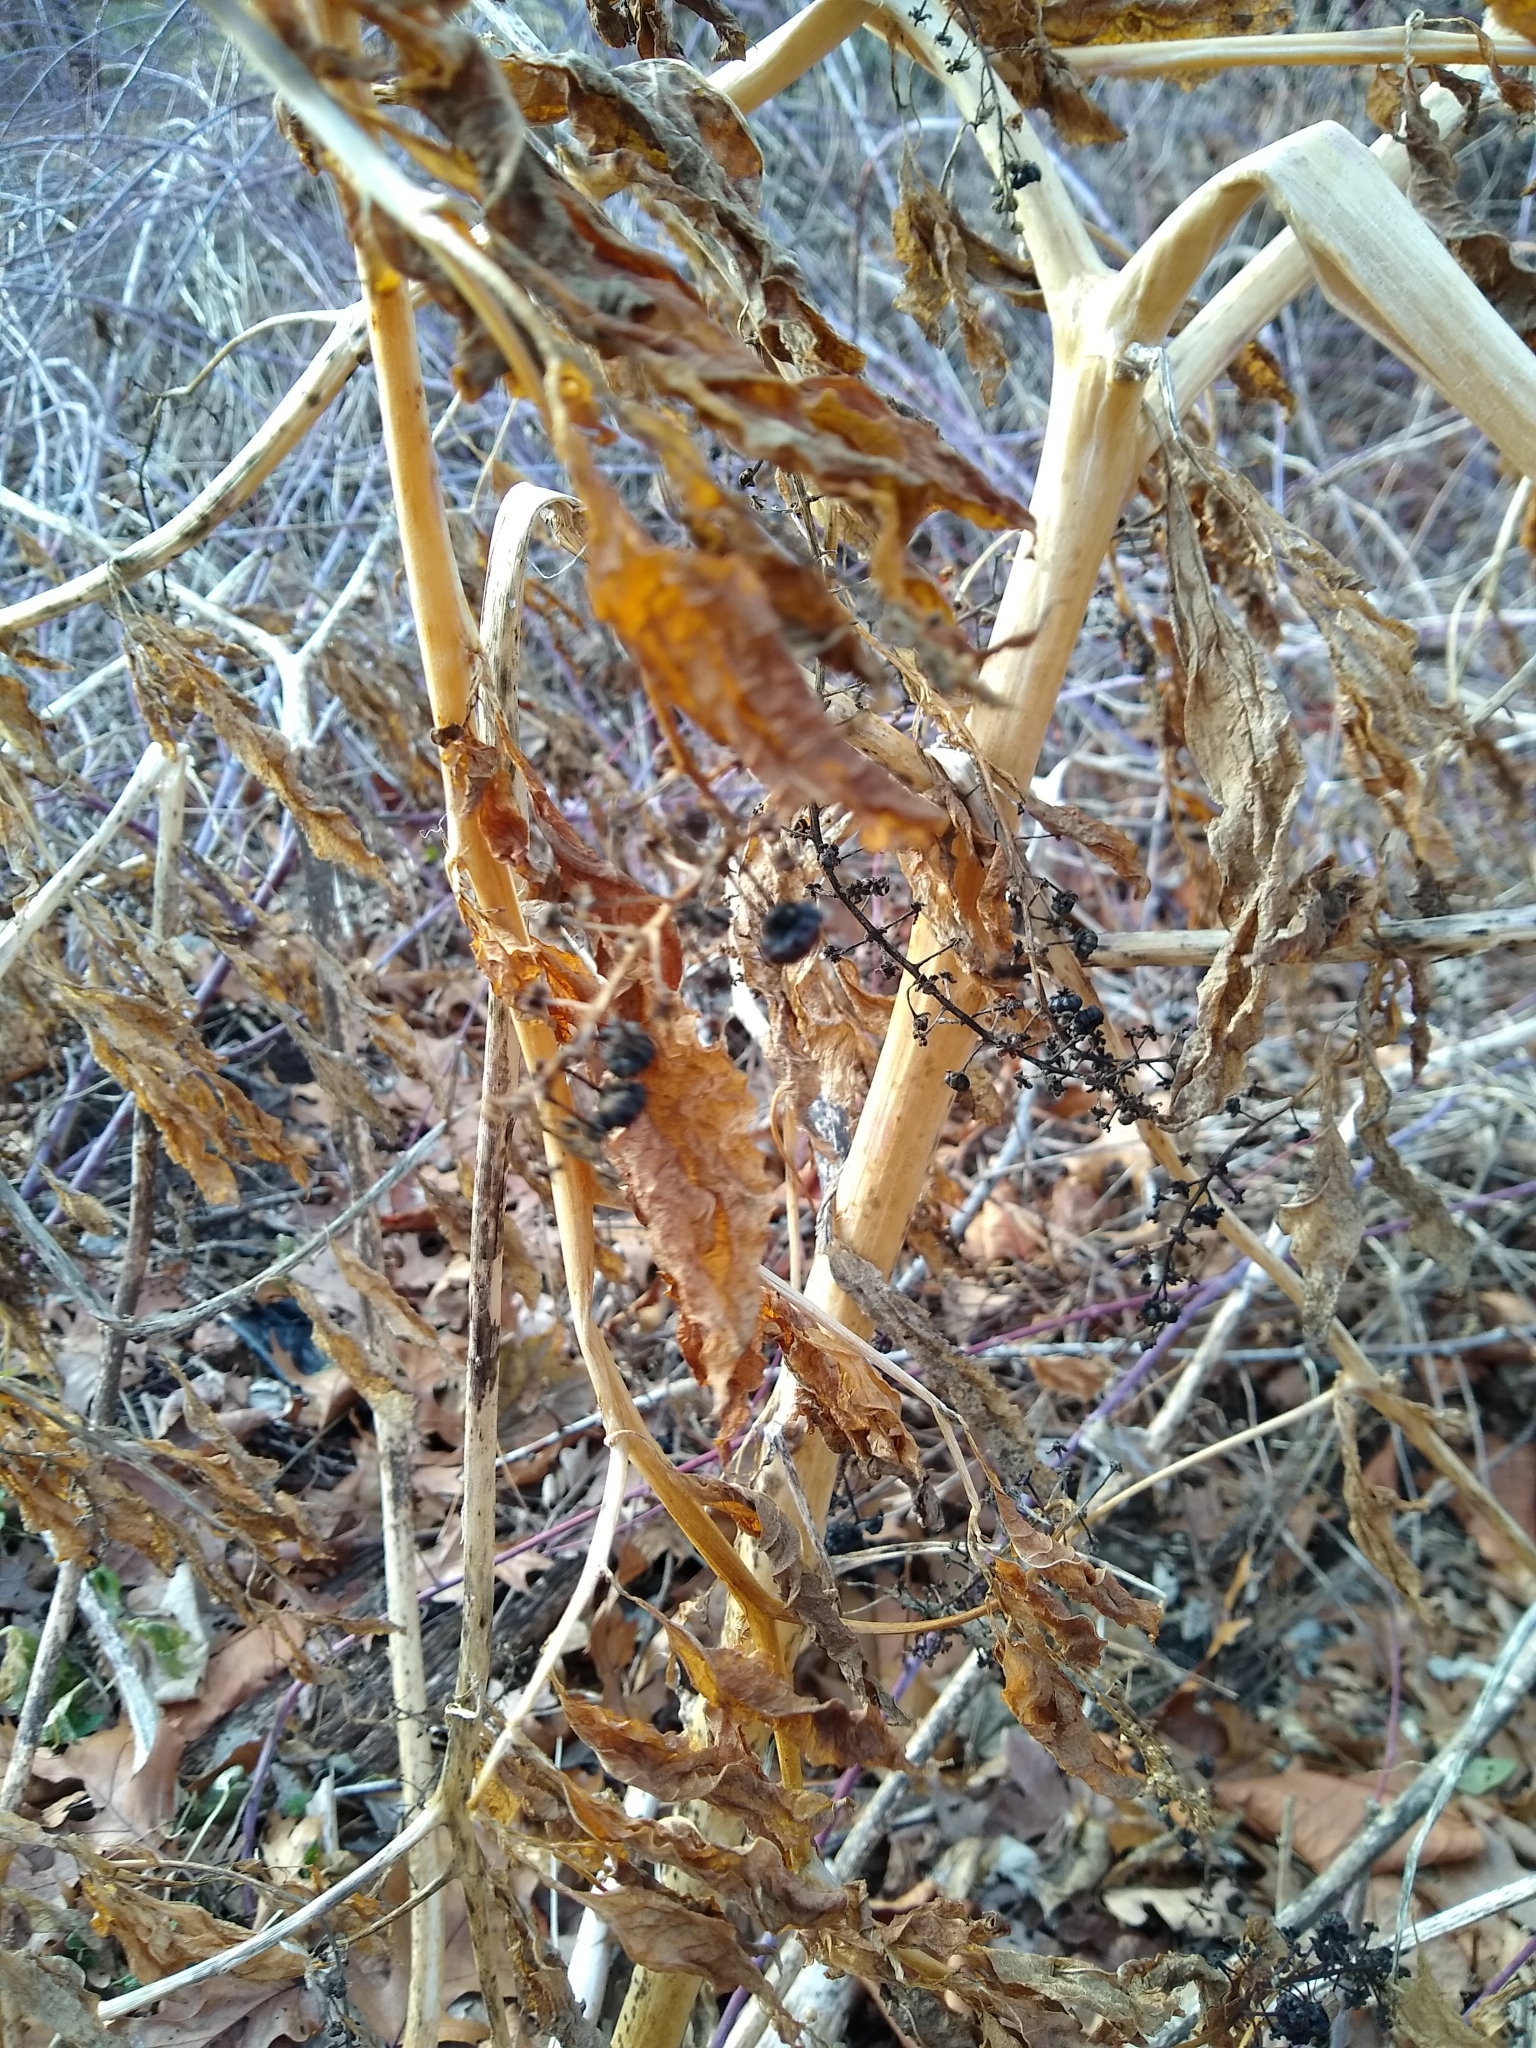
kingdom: Plantae
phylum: Tracheophyta
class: Magnoliopsida
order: Caryophyllales
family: Phytolaccaceae
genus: Phytolacca
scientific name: Phytolacca americana
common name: American pokeweed
